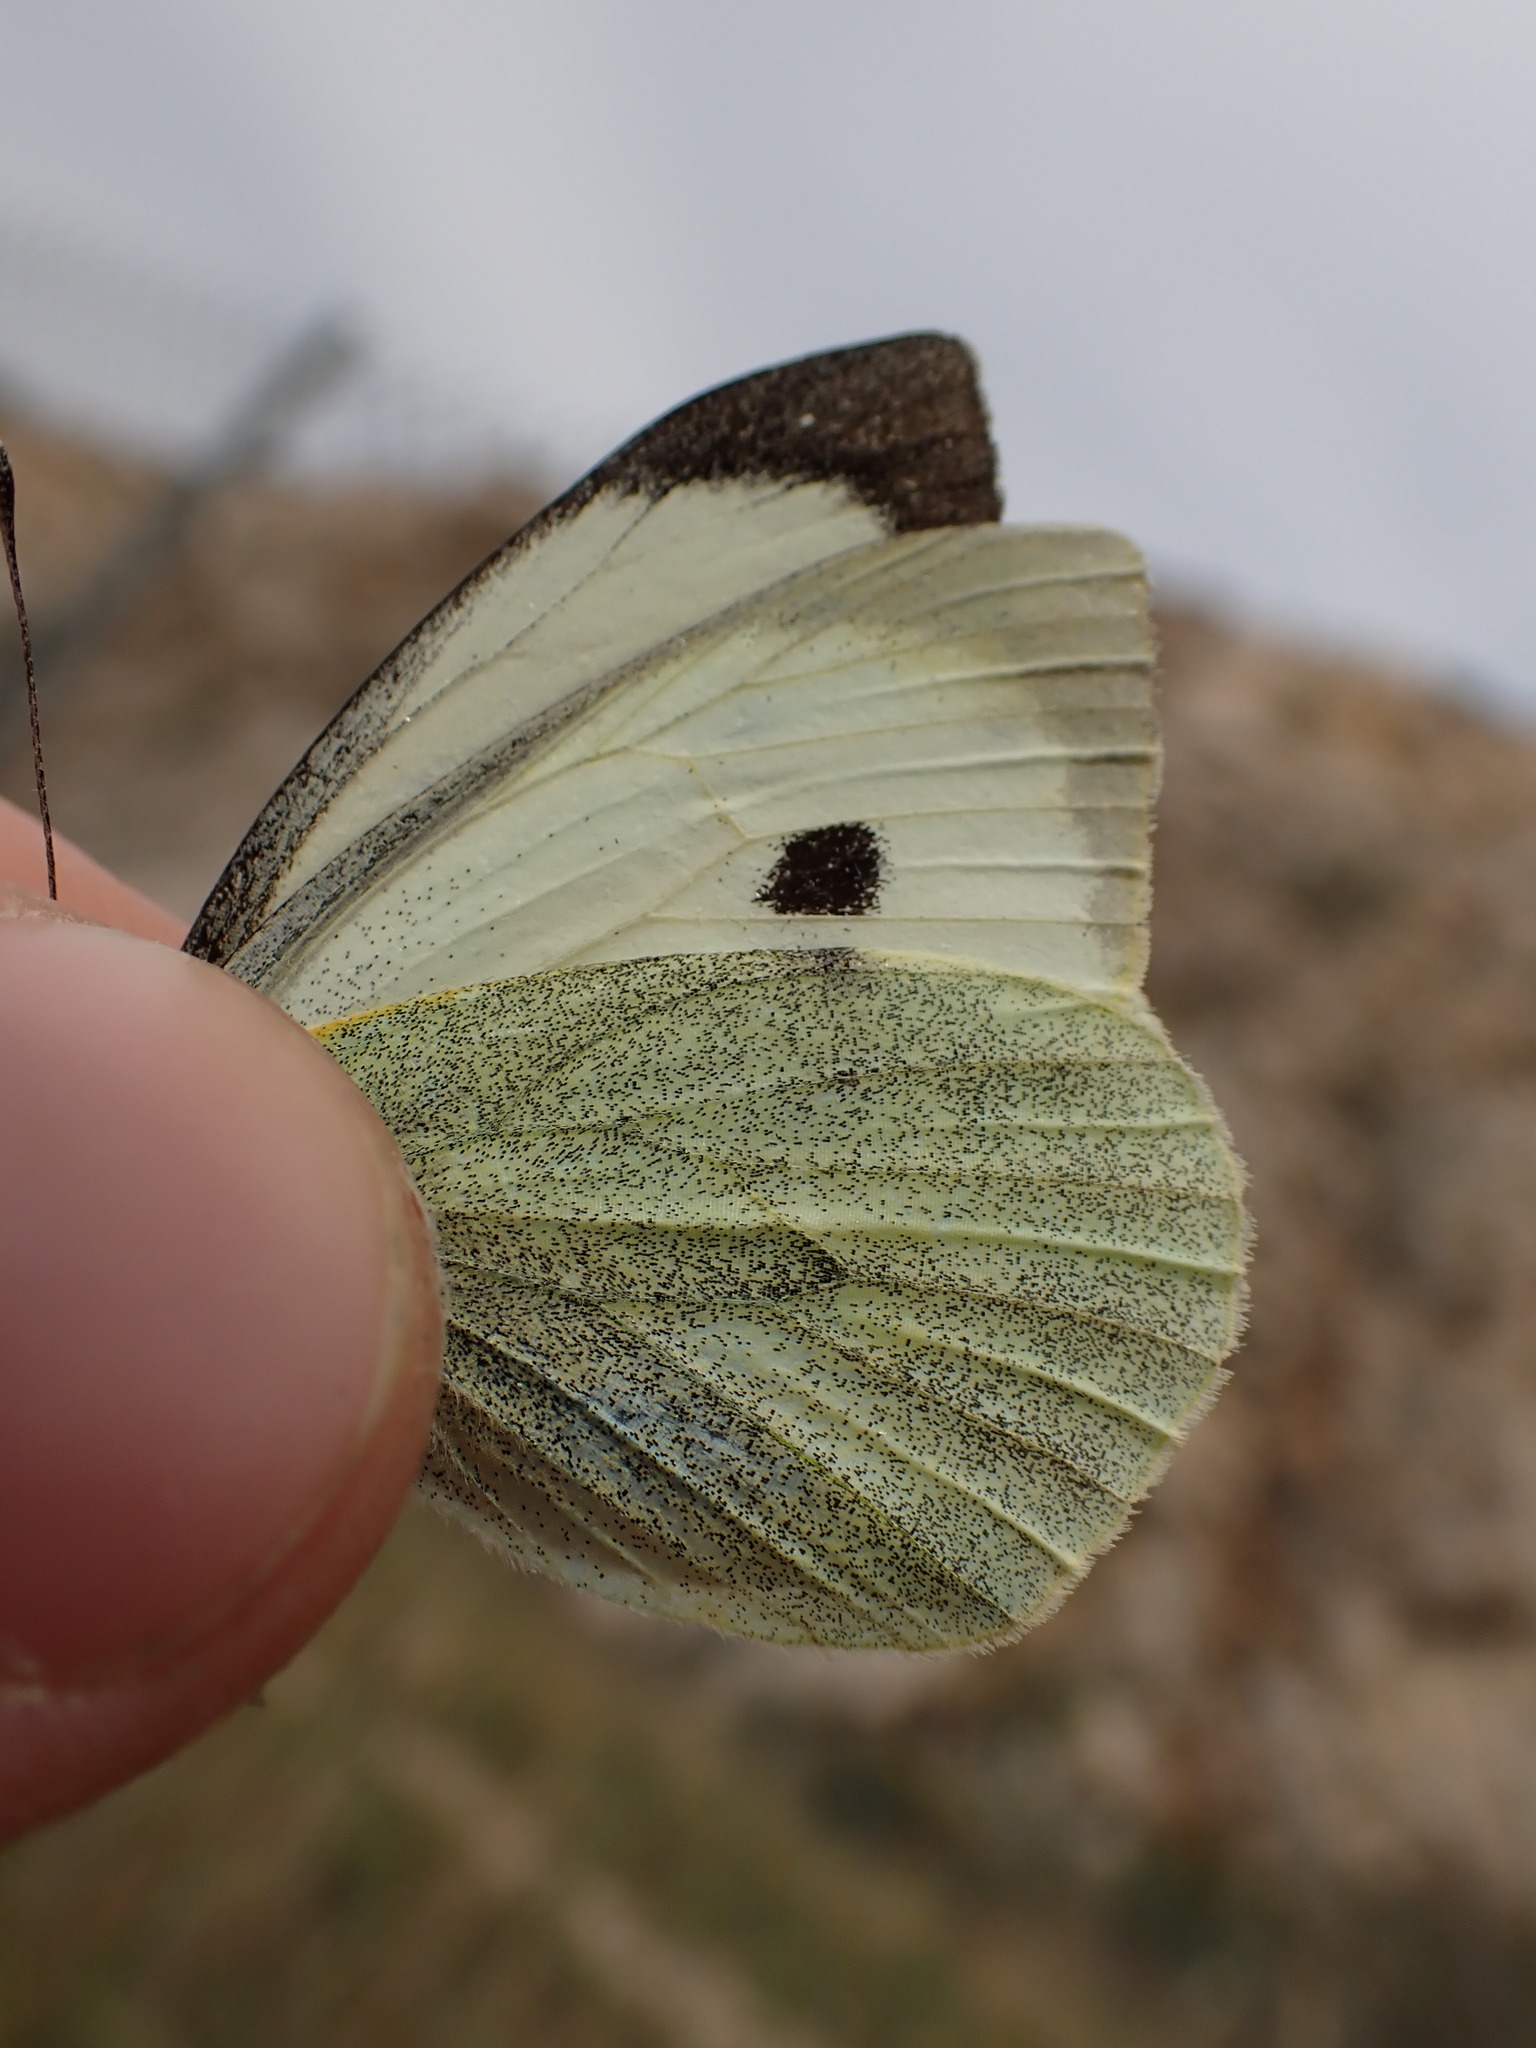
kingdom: Animalia
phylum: Arthropoda
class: Insecta
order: Lepidoptera
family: Pieridae
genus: Pieris
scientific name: Pieris brassicae
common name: Large white
